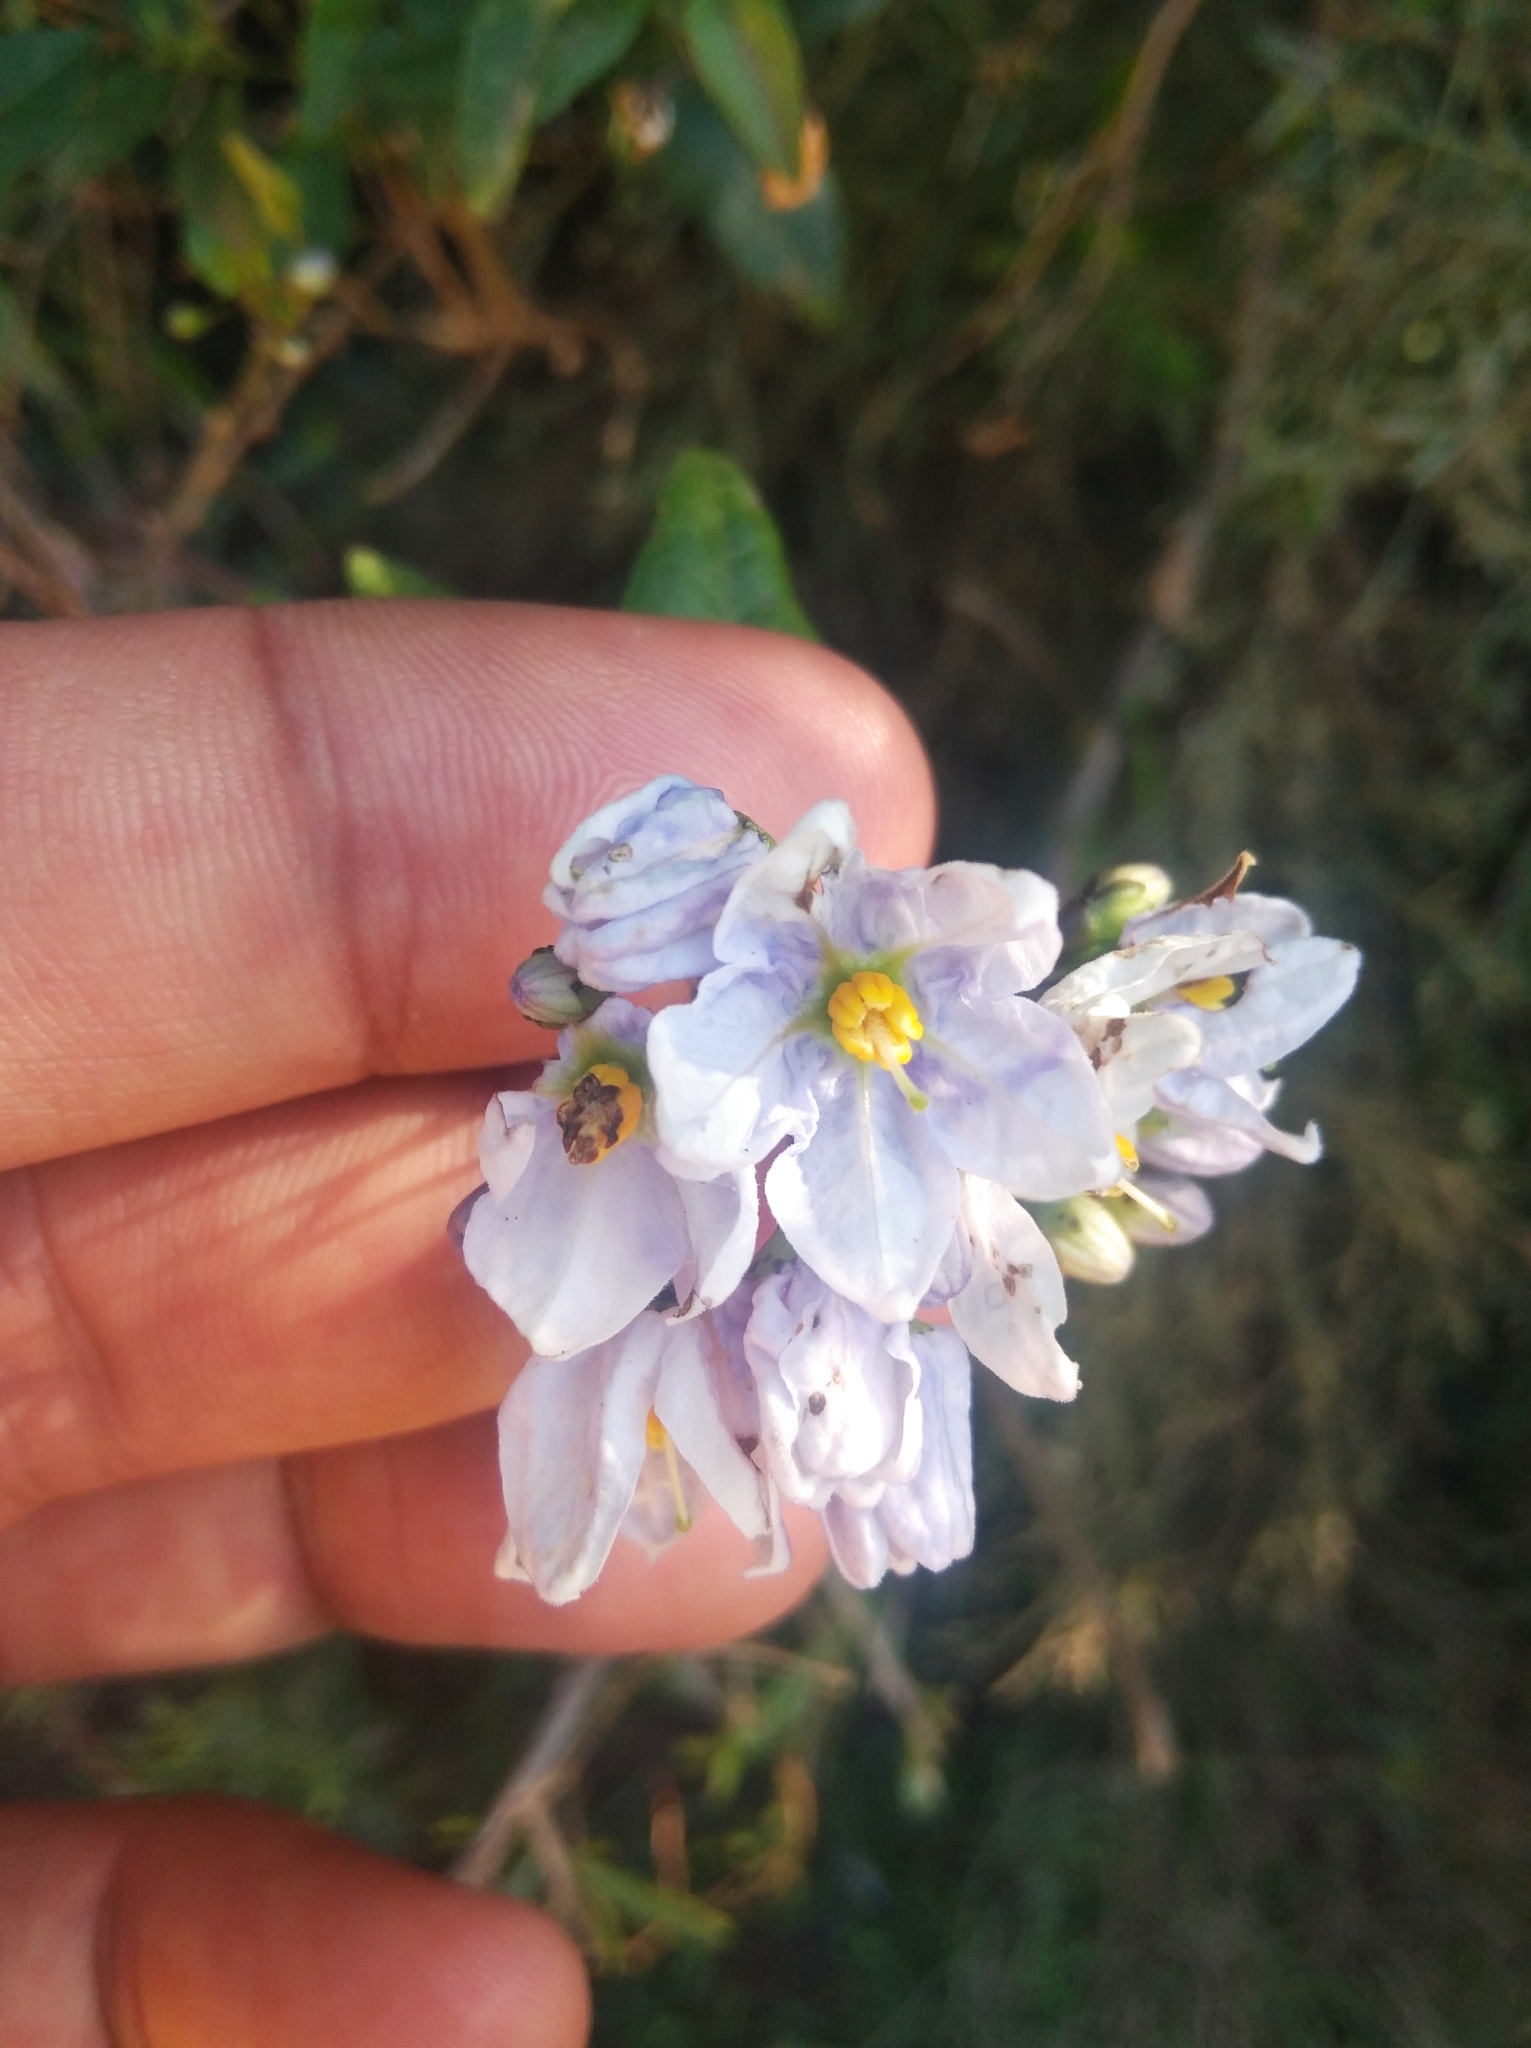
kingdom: Plantae
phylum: Tracheophyta
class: Magnoliopsida
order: Solanales
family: Solanaceae
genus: Solanum
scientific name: Solanum laxum
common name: Nightshade
